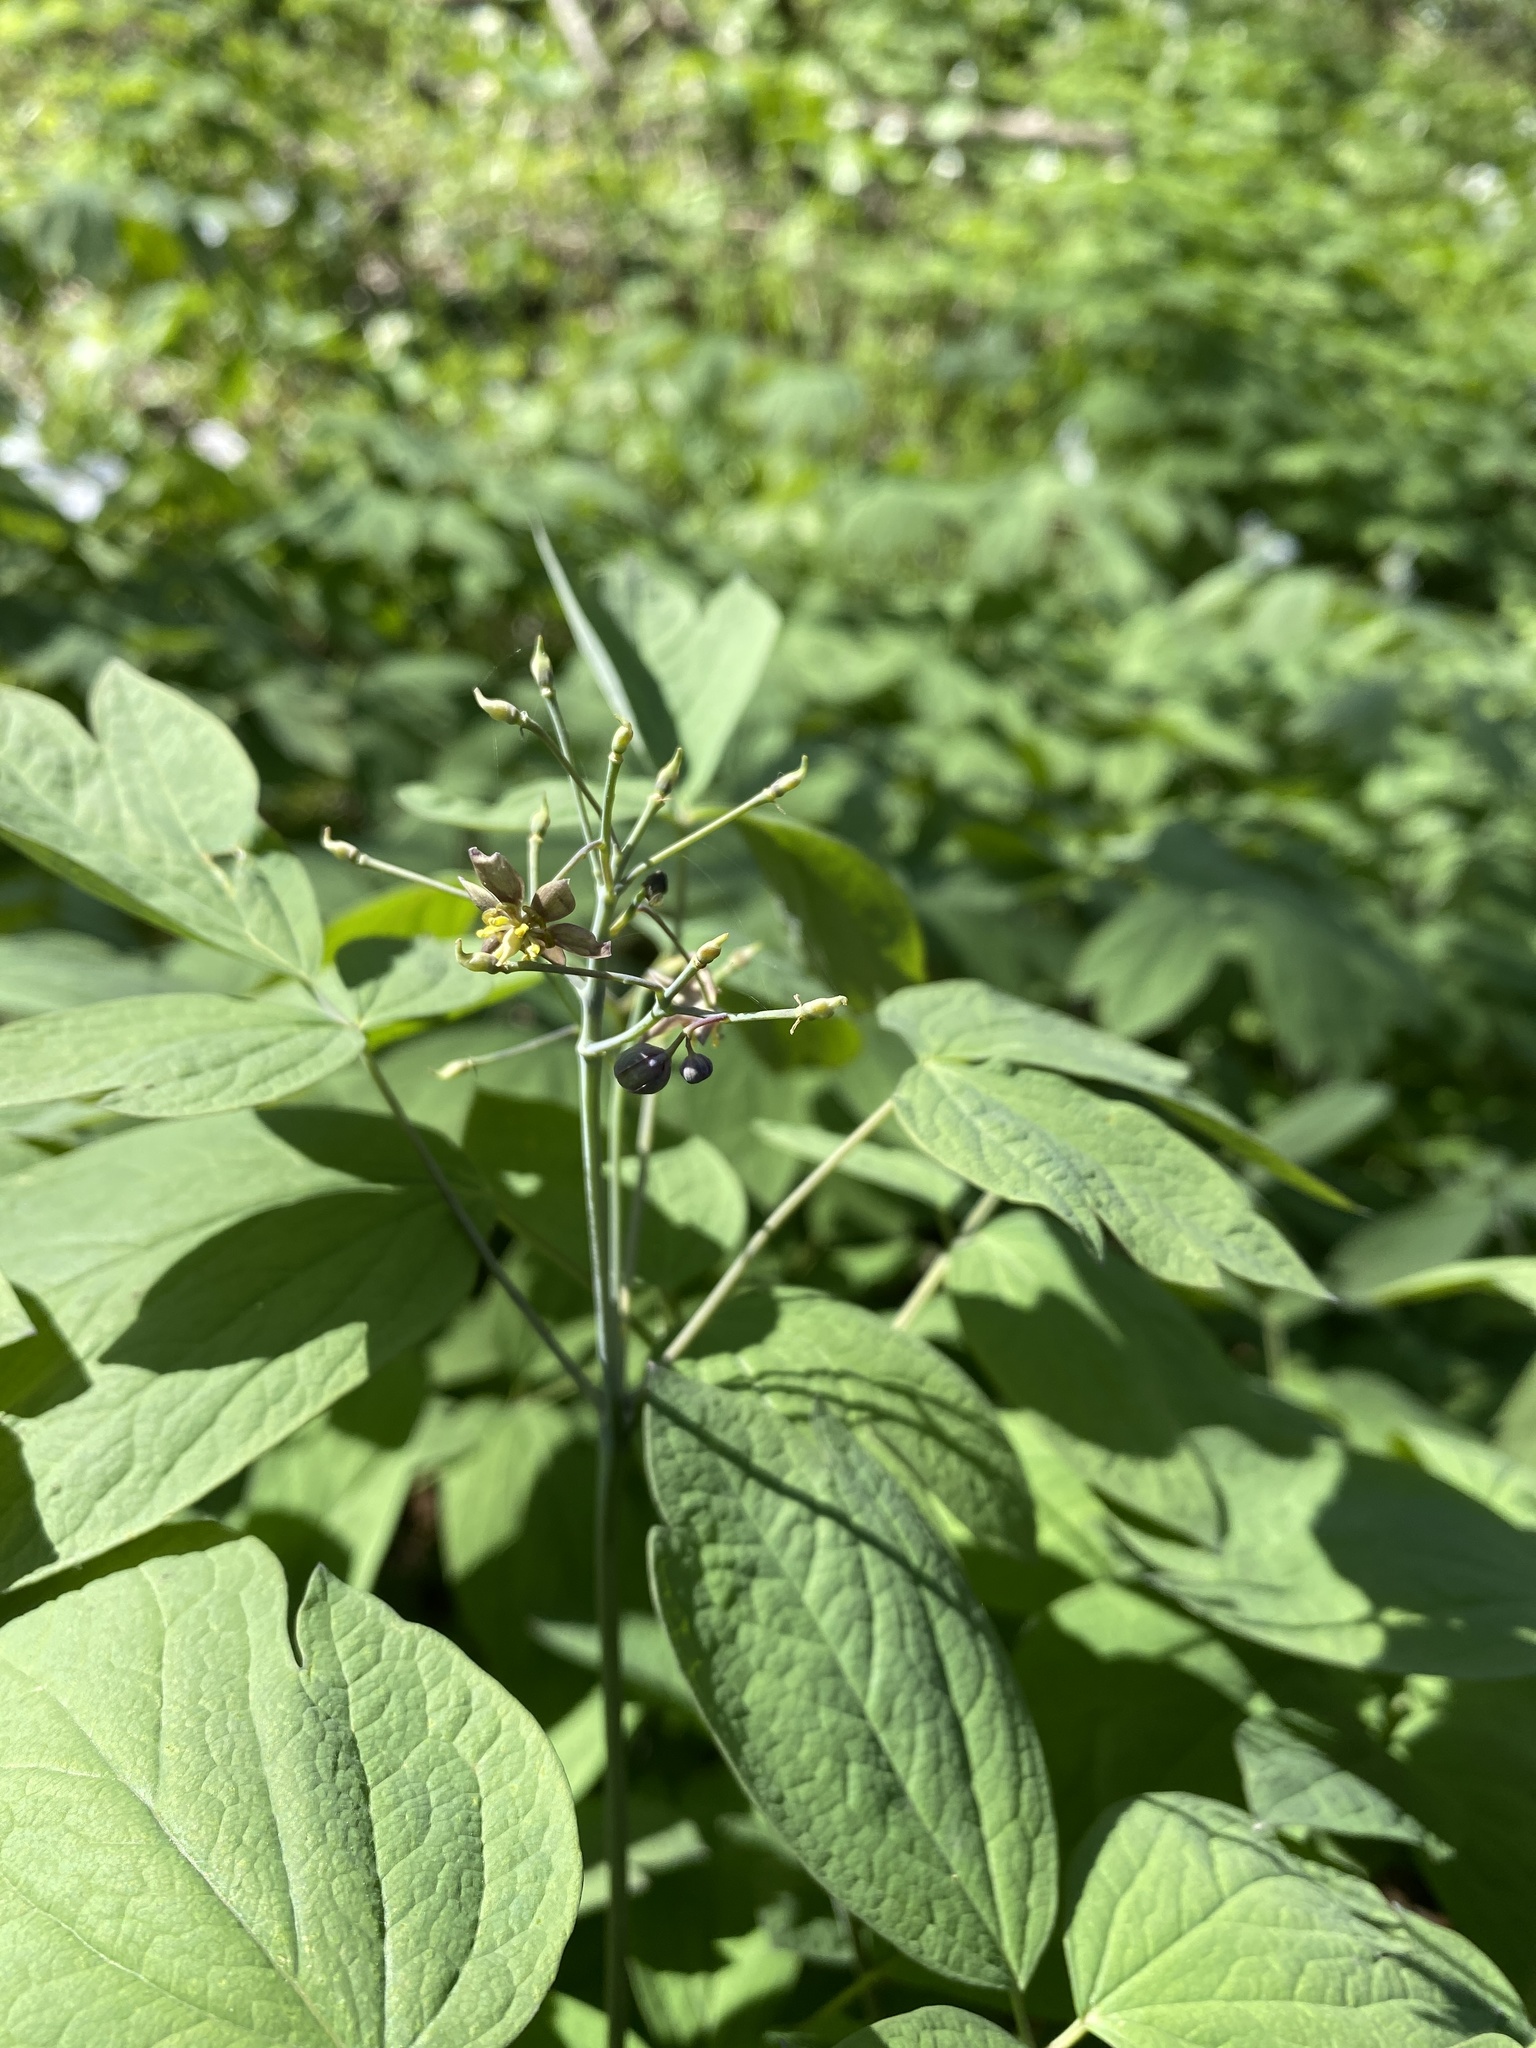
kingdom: Plantae
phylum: Tracheophyta
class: Magnoliopsida
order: Ranunculales
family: Berberidaceae
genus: Caulophyllum
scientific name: Caulophyllum giganteum
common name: Blue cohosh
